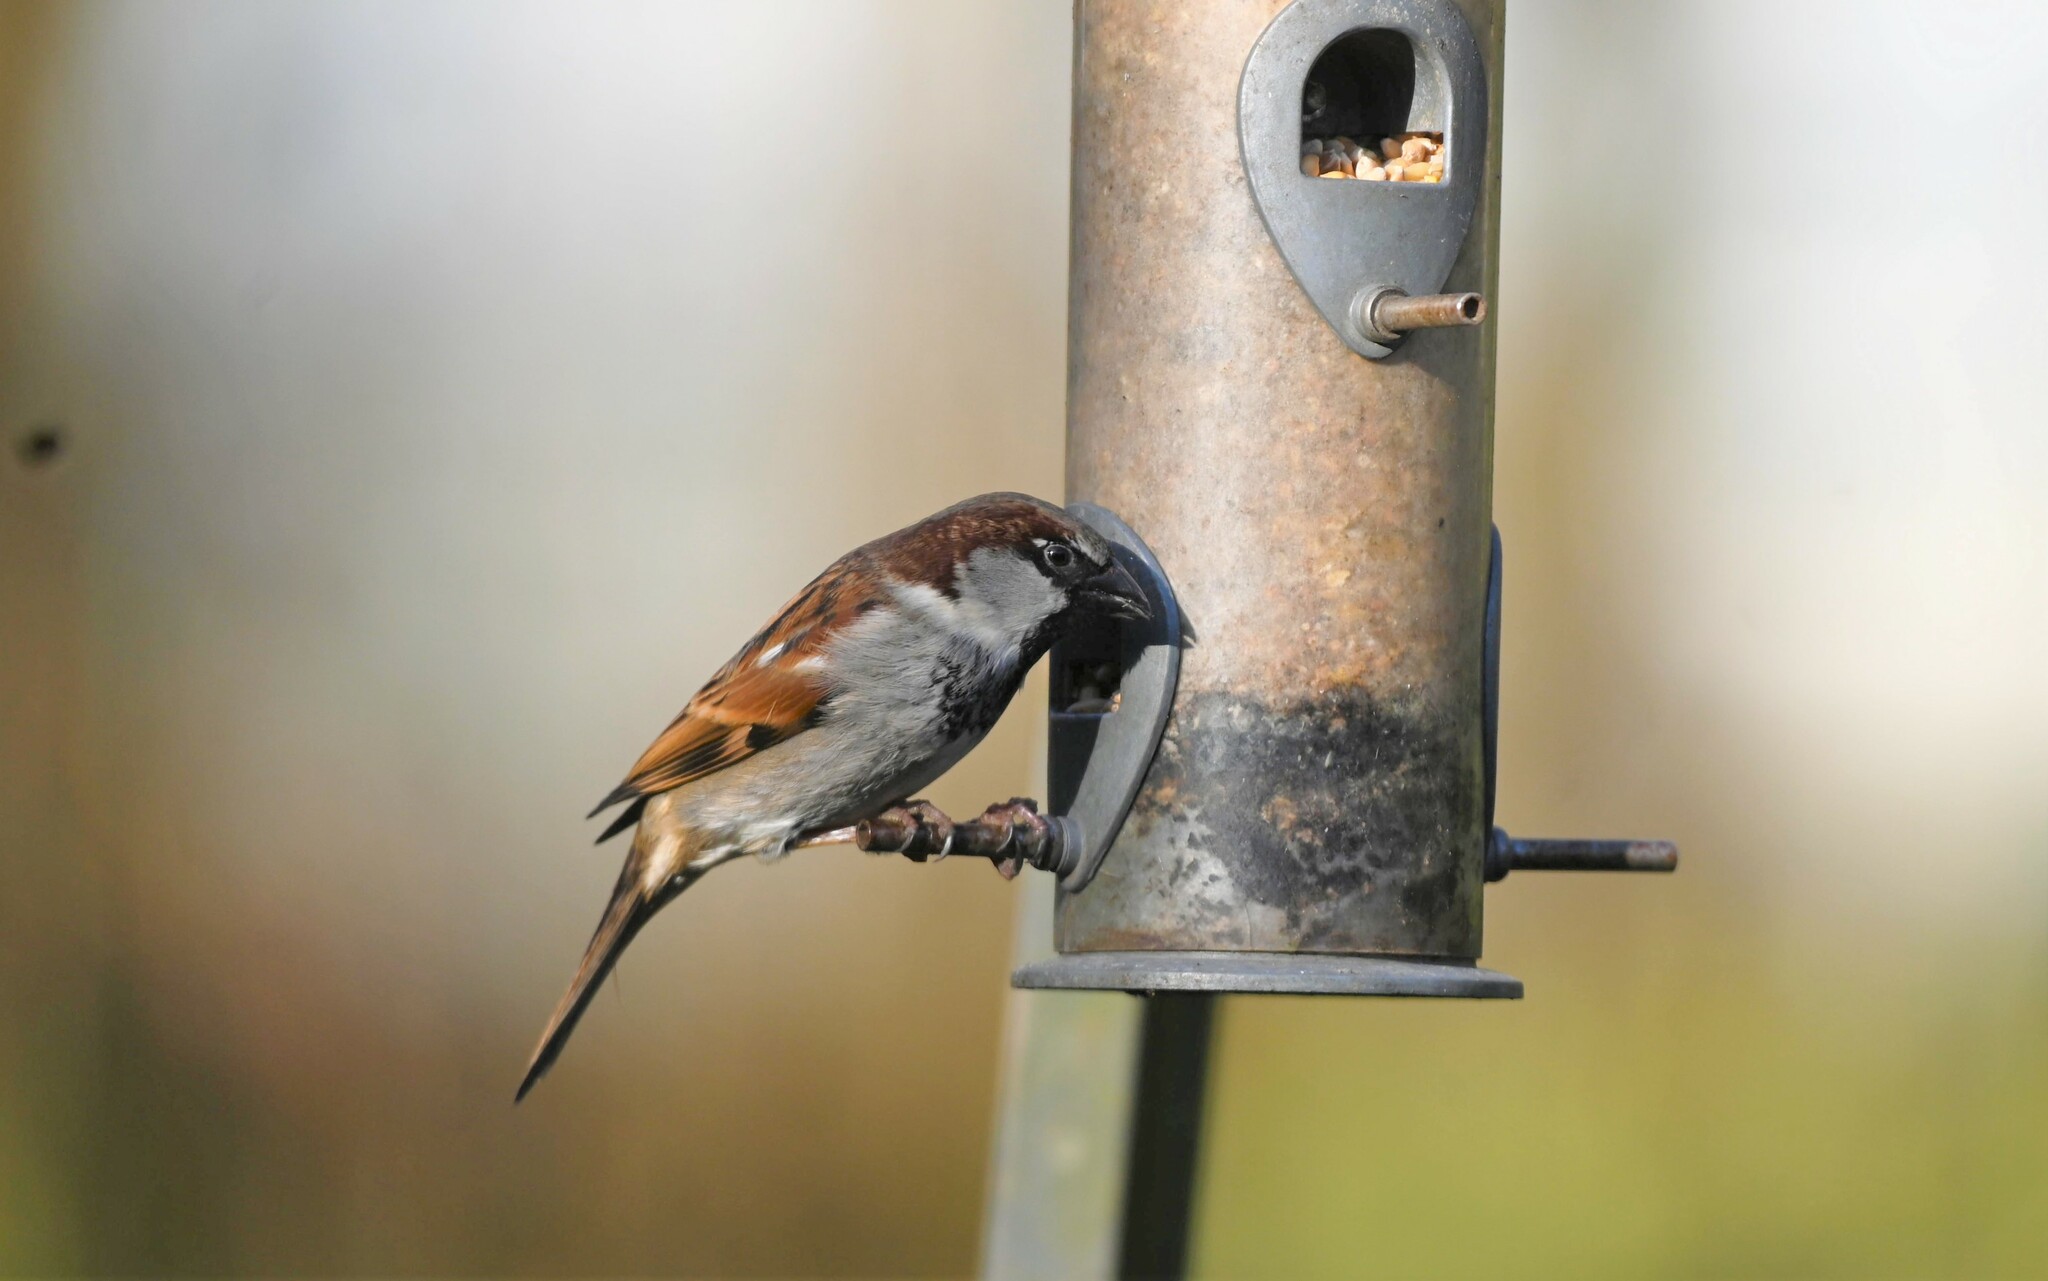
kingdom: Animalia
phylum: Chordata
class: Aves
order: Passeriformes
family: Passeridae
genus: Passer
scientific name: Passer domesticus
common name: House sparrow
